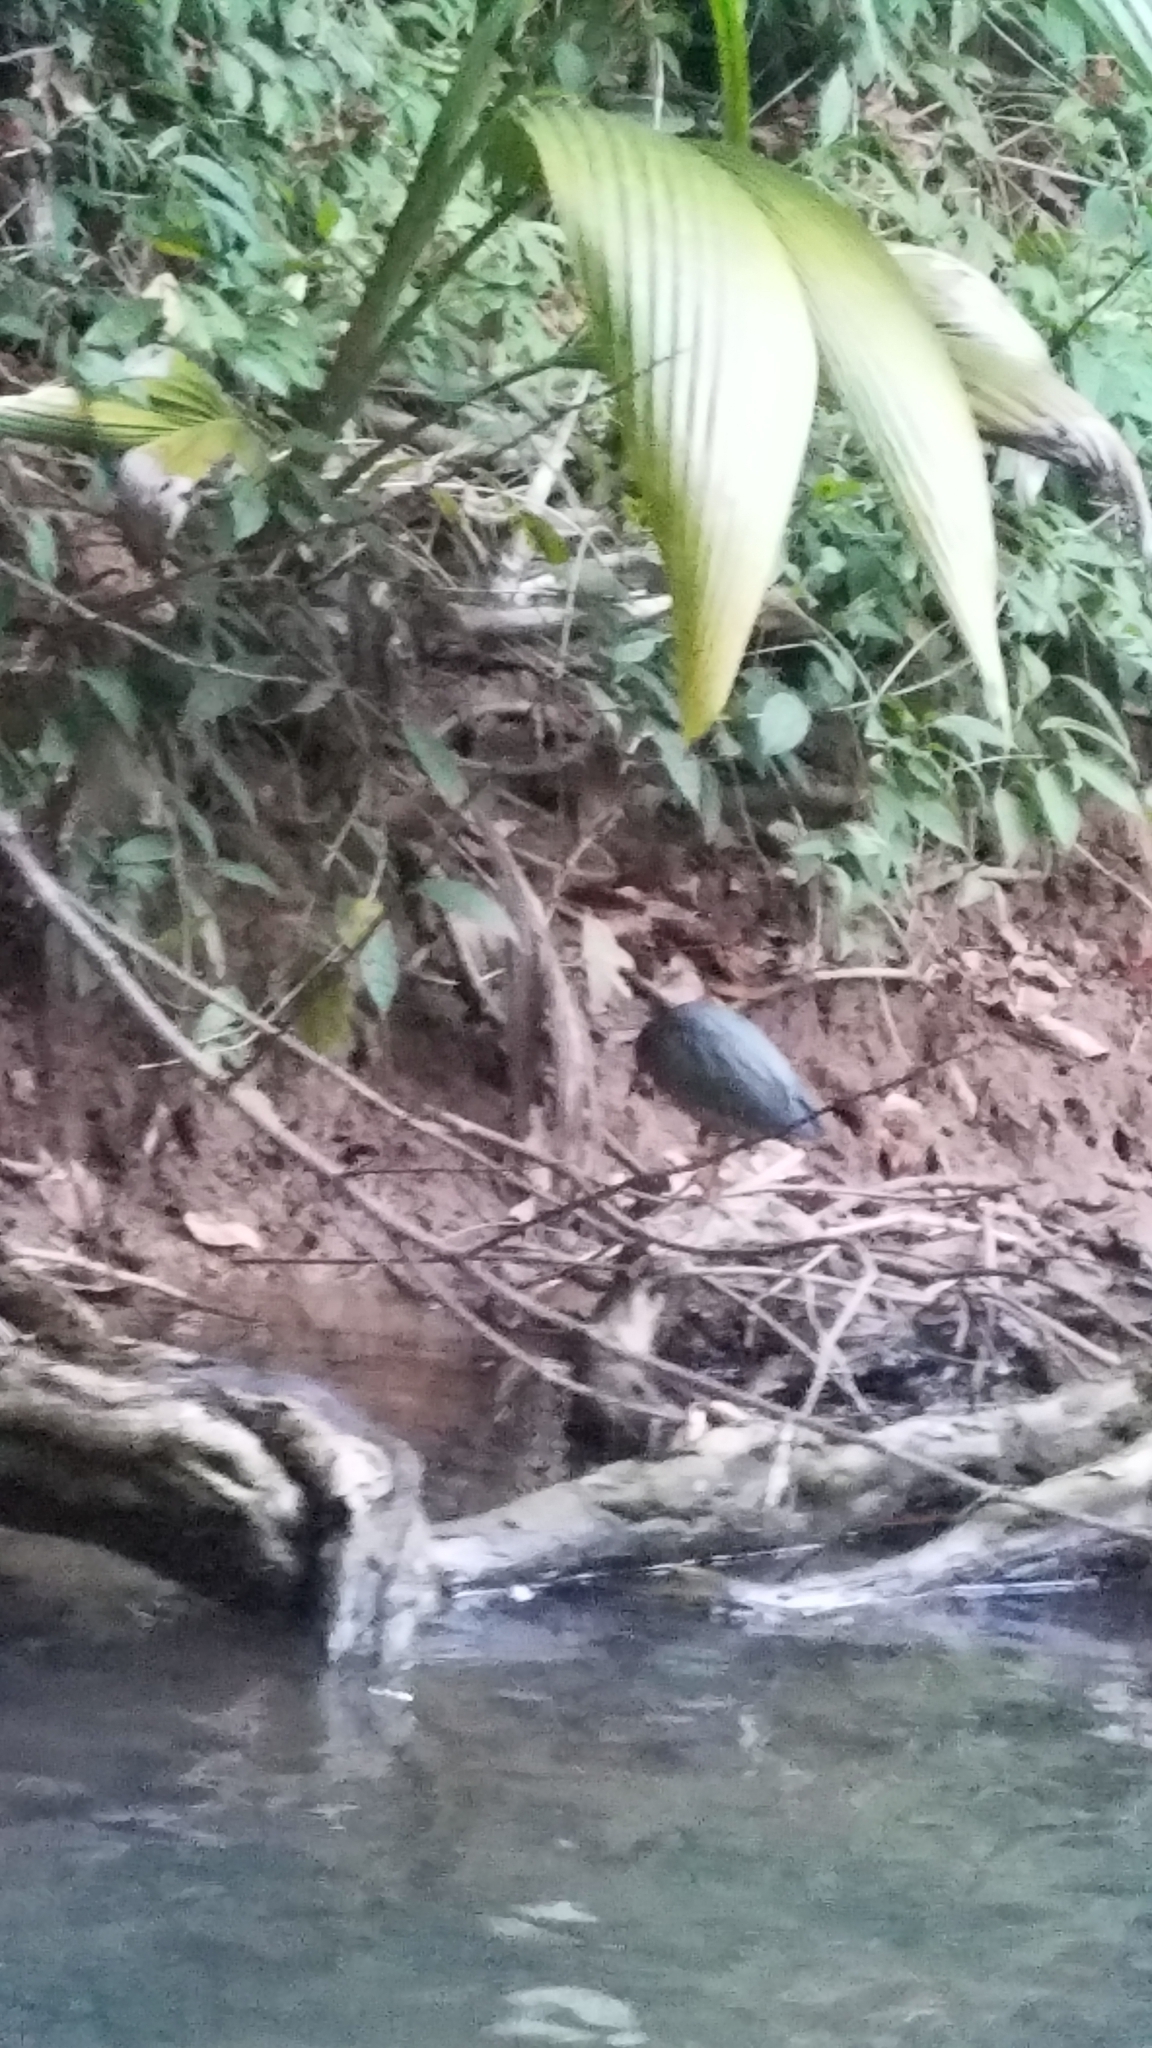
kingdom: Animalia
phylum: Chordata
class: Aves
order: Pelecaniformes
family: Ardeidae
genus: Butorides
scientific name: Butorides virescens
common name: Green heron
